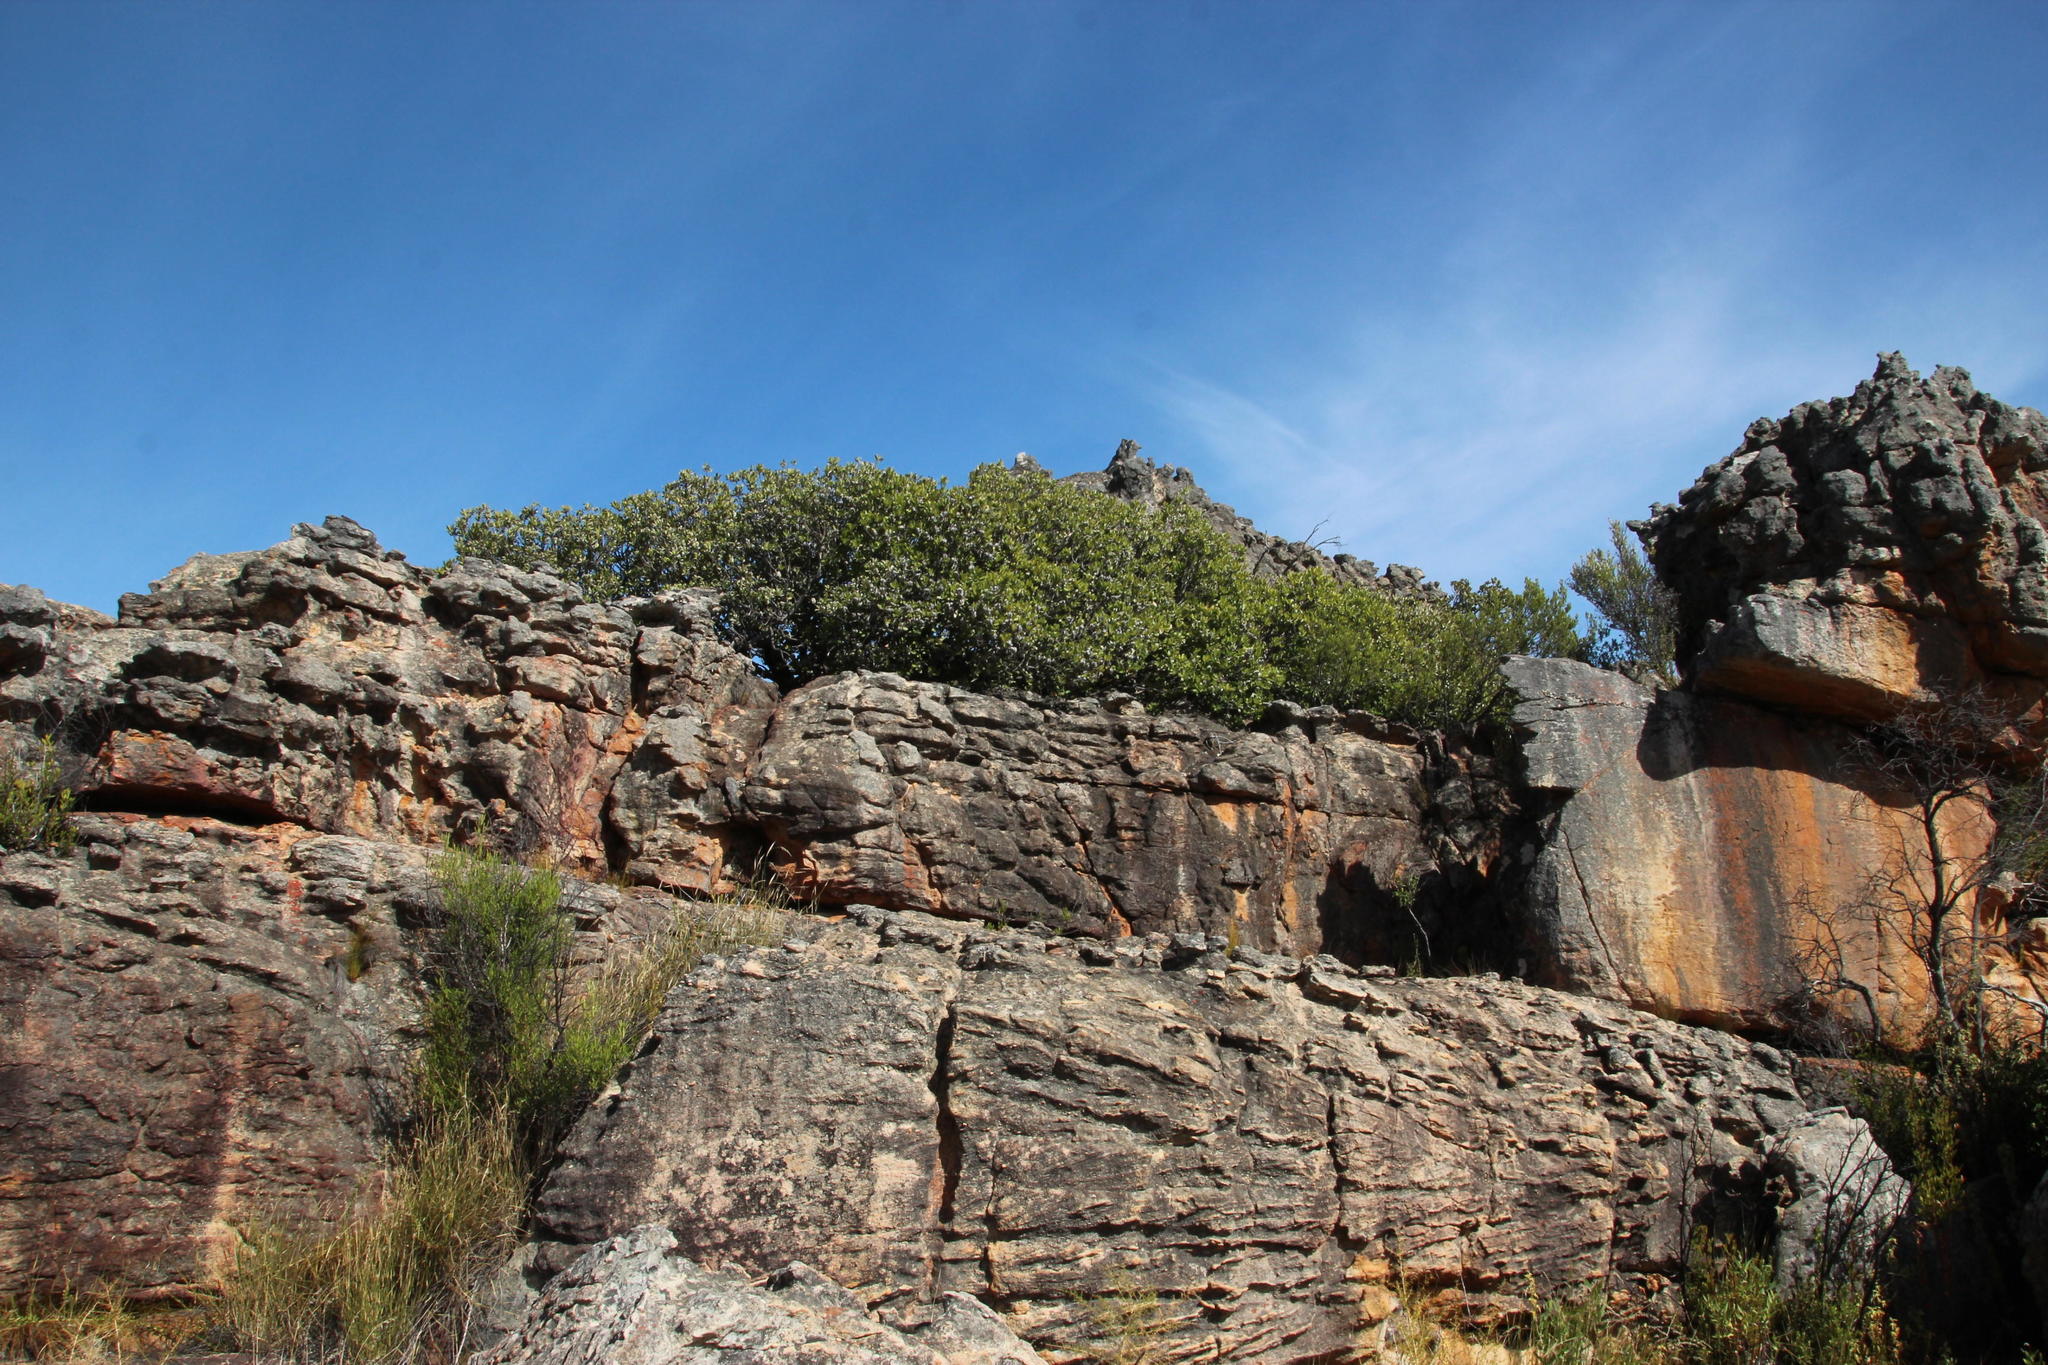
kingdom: Plantae
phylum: Tracheophyta
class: Liliopsida
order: Asparagales
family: Asphodelaceae
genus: Aloe
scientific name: Aloe perfoliata
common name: Mitra aloe
